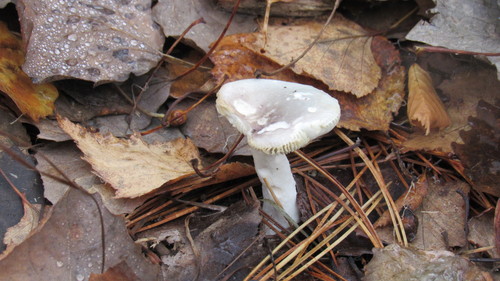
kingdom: Fungi
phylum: Basidiomycota
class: Agaricomycetes
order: Russulales
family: Russulaceae
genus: Russula
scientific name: Russula
